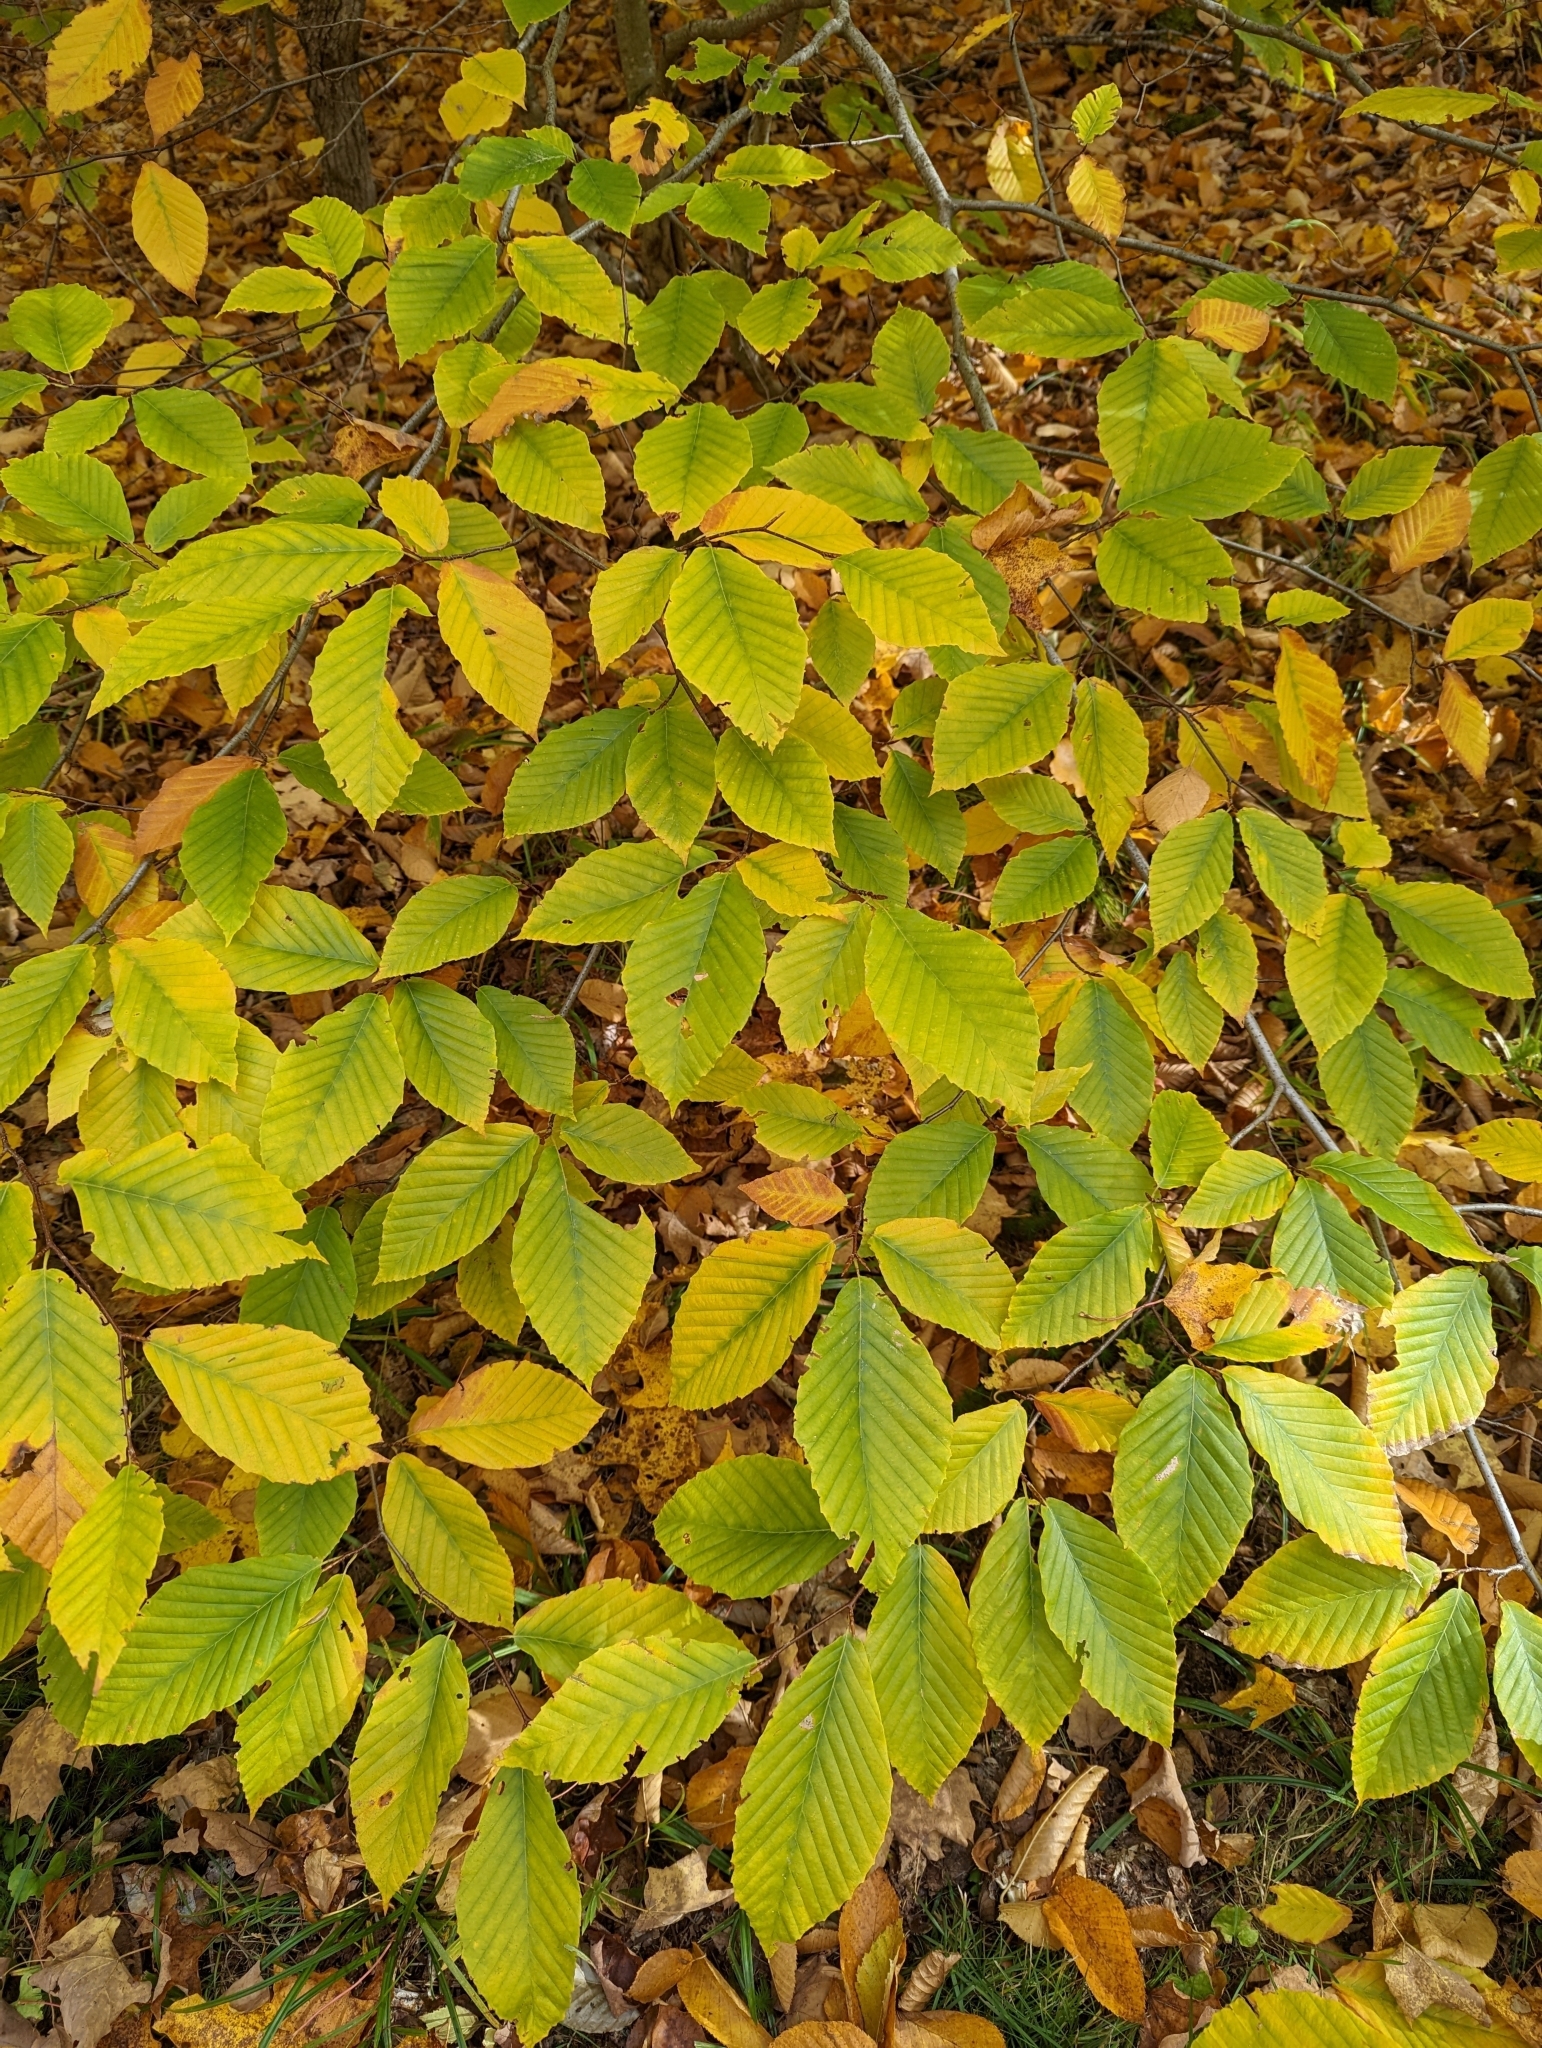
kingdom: Plantae
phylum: Tracheophyta
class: Magnoliopsida
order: Fagales
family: Fagaceae
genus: Fagus
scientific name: Fagus grandifolia
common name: American beech
